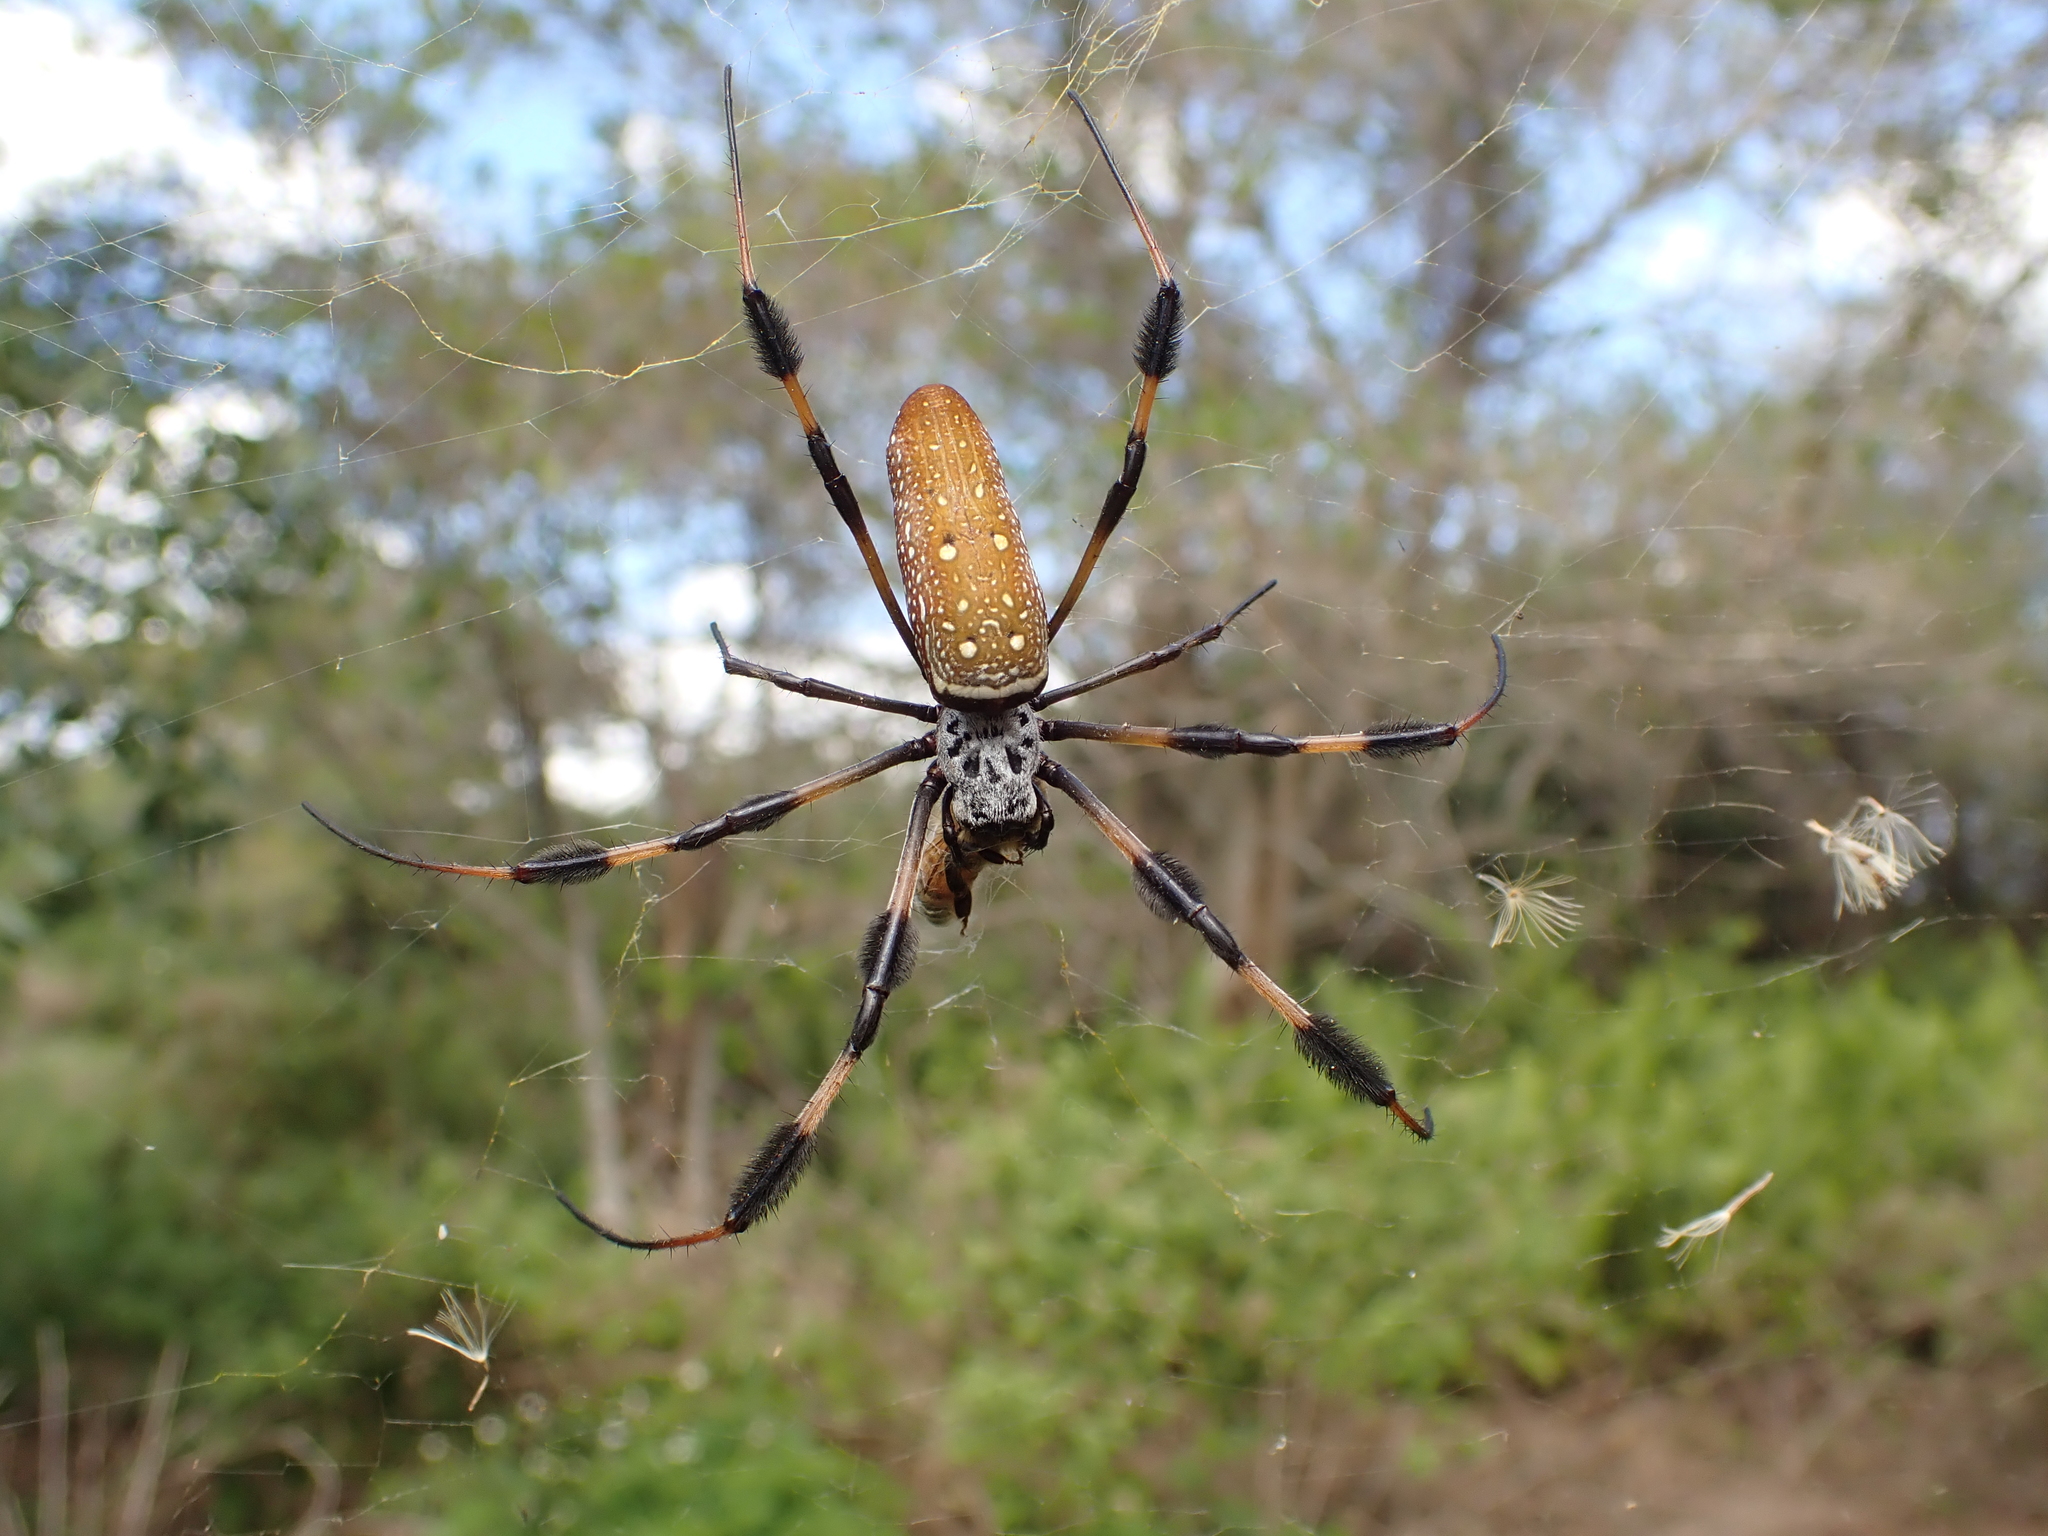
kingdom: Animalia
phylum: Arthropoda
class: Arachnida
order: Araneae
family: Araneidae
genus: Trichonephila
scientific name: Trichonephila clavipes
